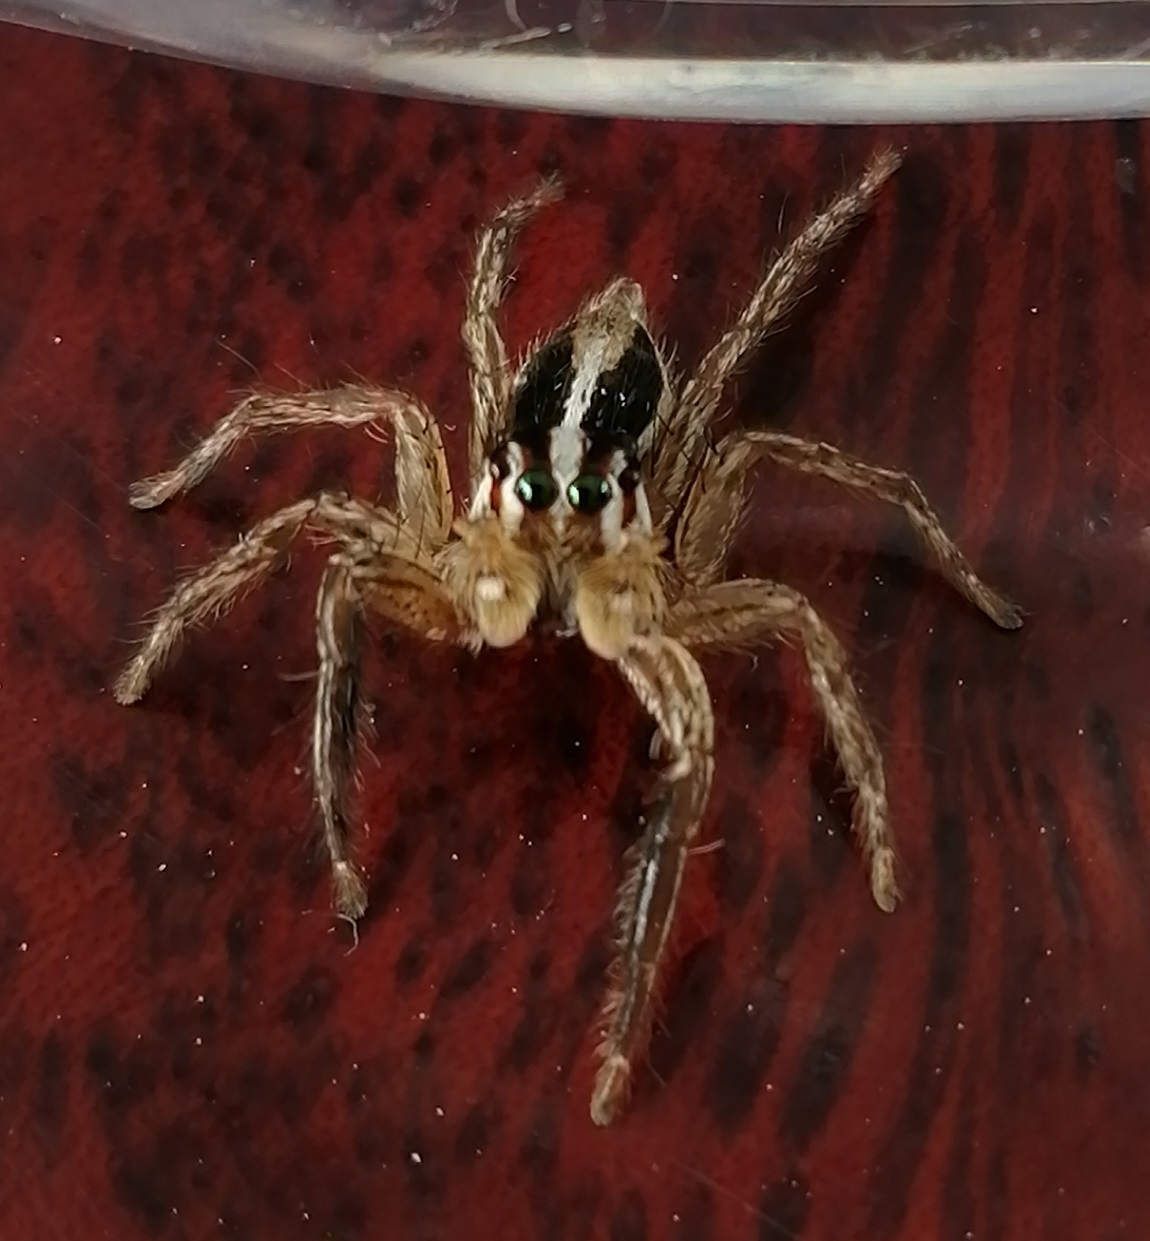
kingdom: Animalia
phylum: Arthropoda
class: Arachnida
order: Araneae
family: Salticidae
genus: Plexippus
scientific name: Plexippus paykulli
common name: Pantropical jumper
